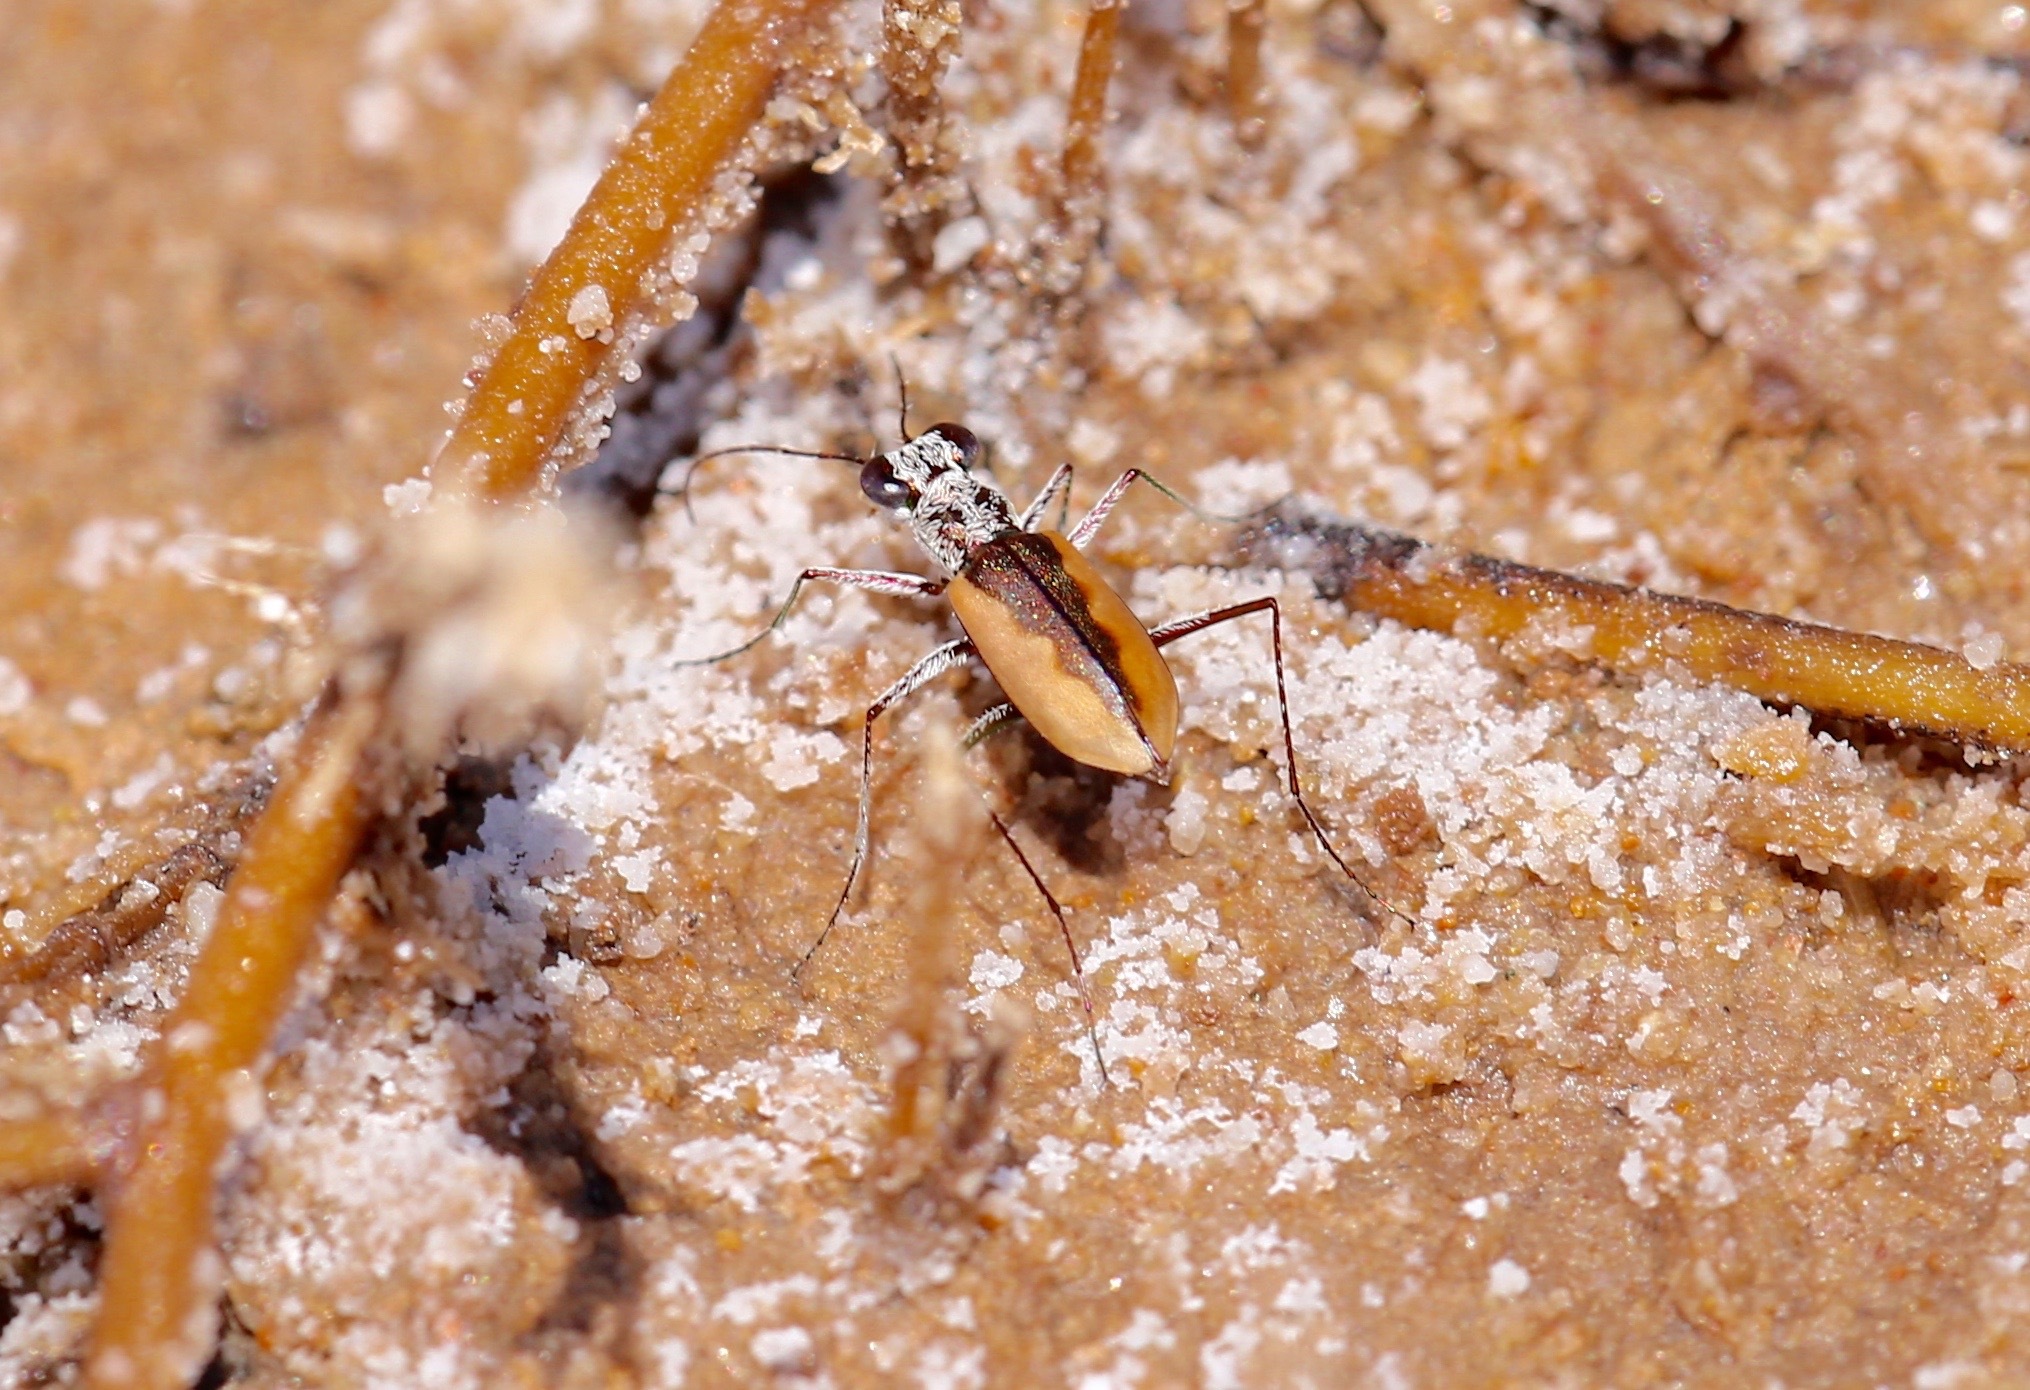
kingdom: Animalia
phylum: Arthropoda
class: Insecta
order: Coleoptera
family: Carabidae
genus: Eunota
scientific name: Eunota togata
